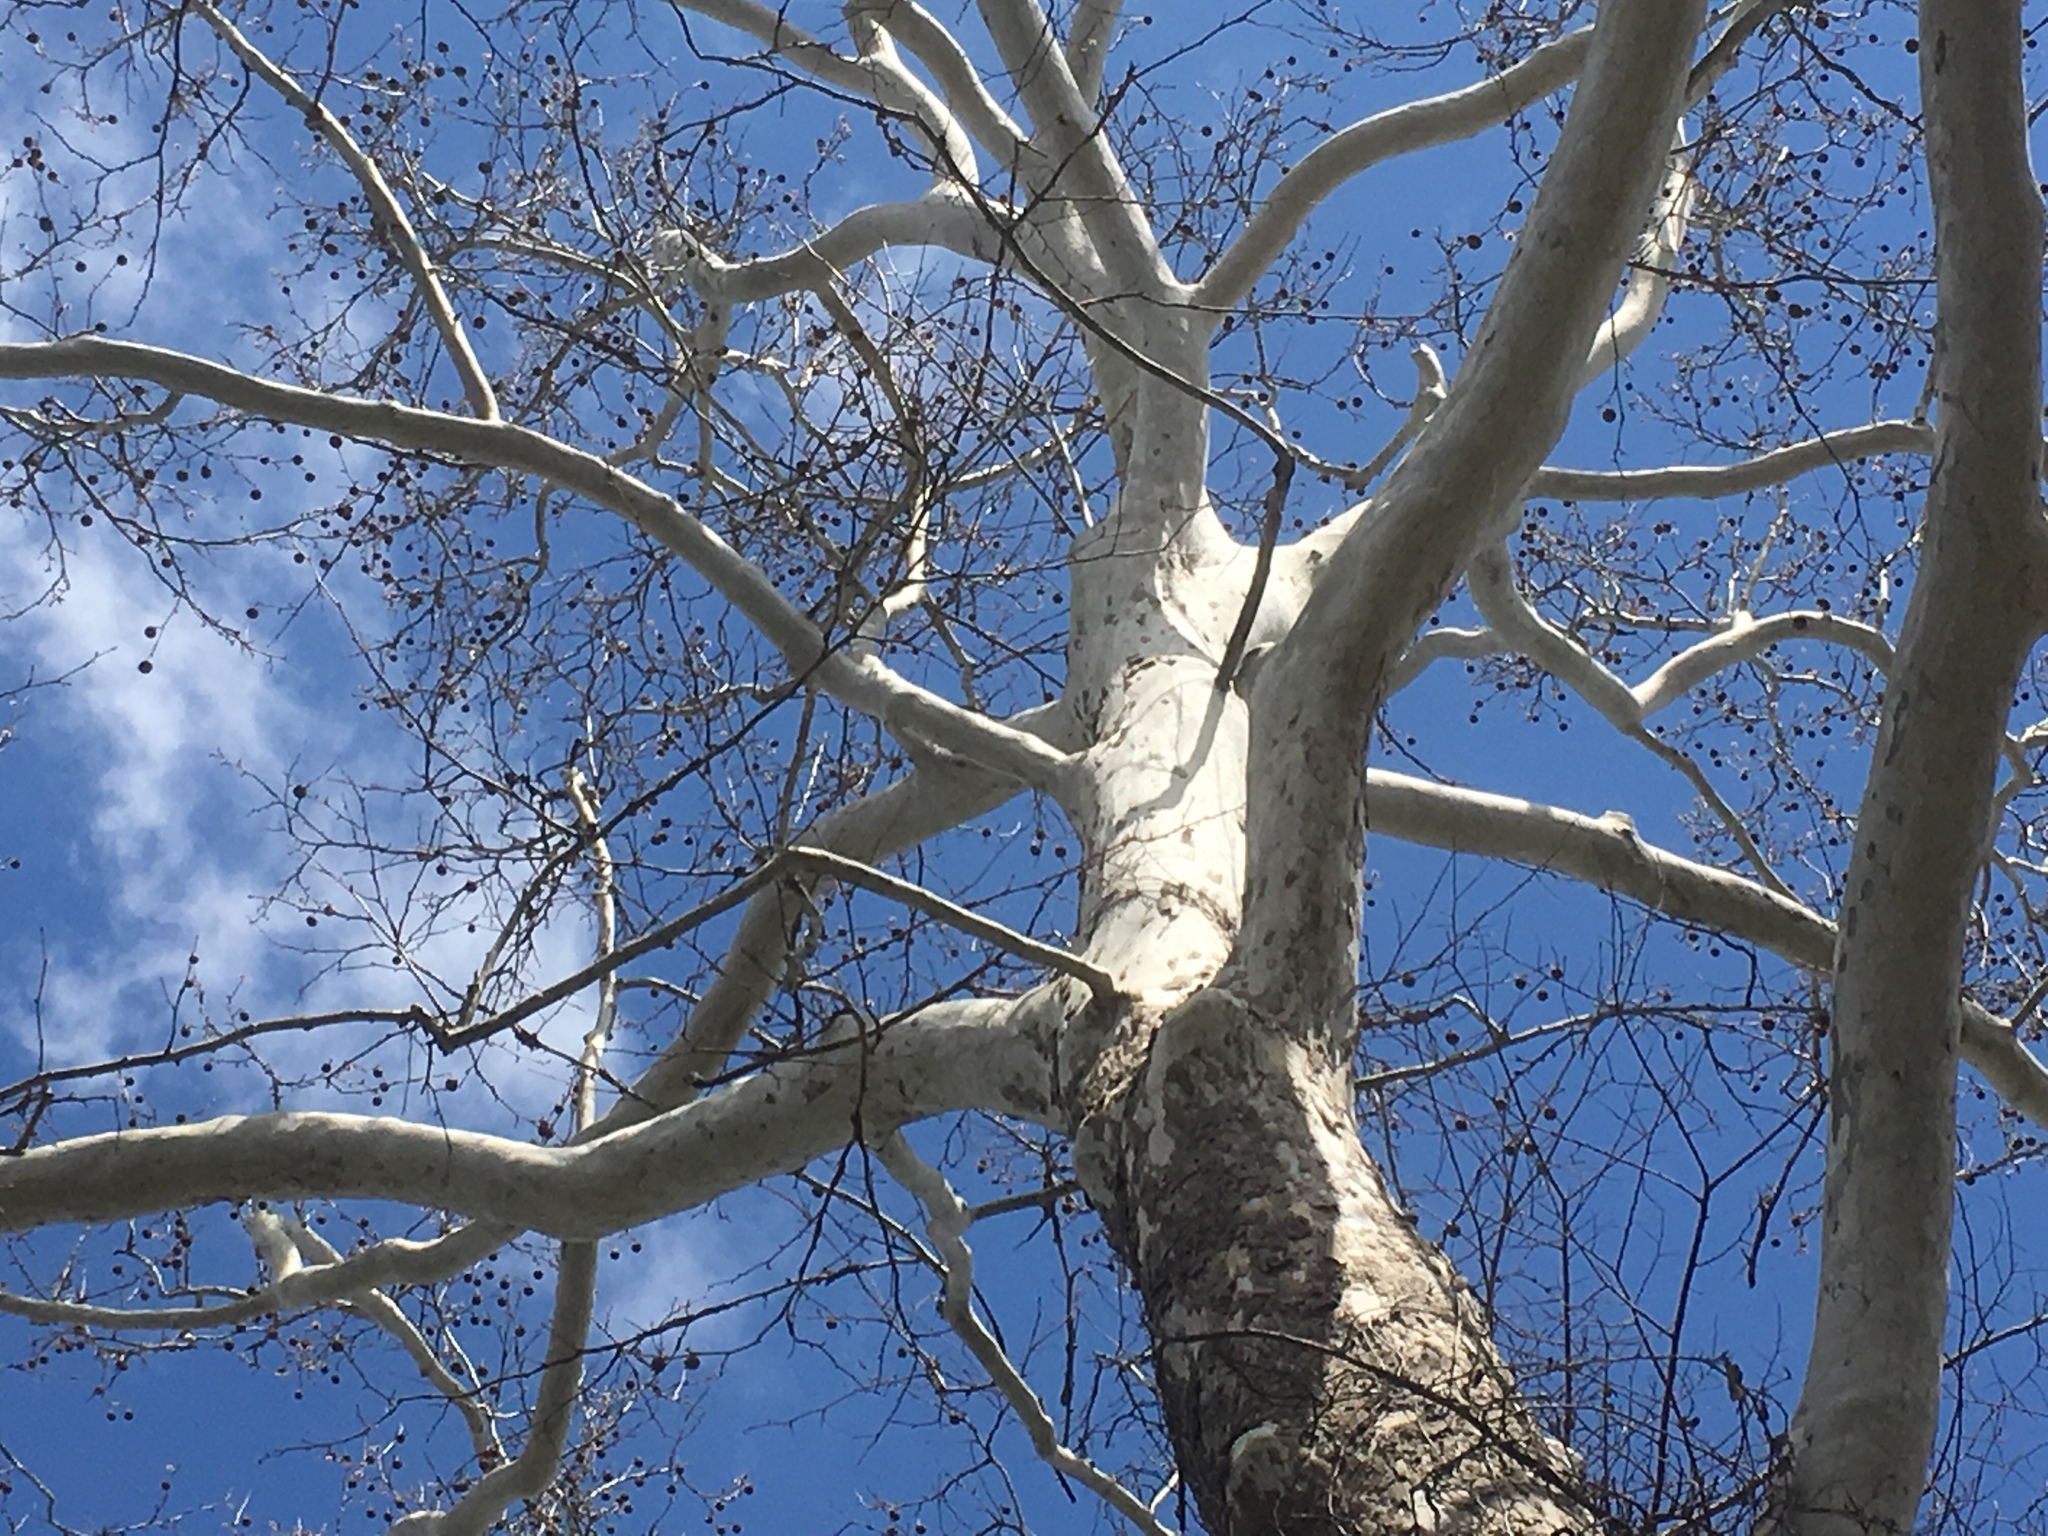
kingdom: Plantae
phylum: Tracheophyta
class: Magnoliopsida
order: Proteales
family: Platanaceae
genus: Platanus
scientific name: Platanus occidentalis
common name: American sycamore
